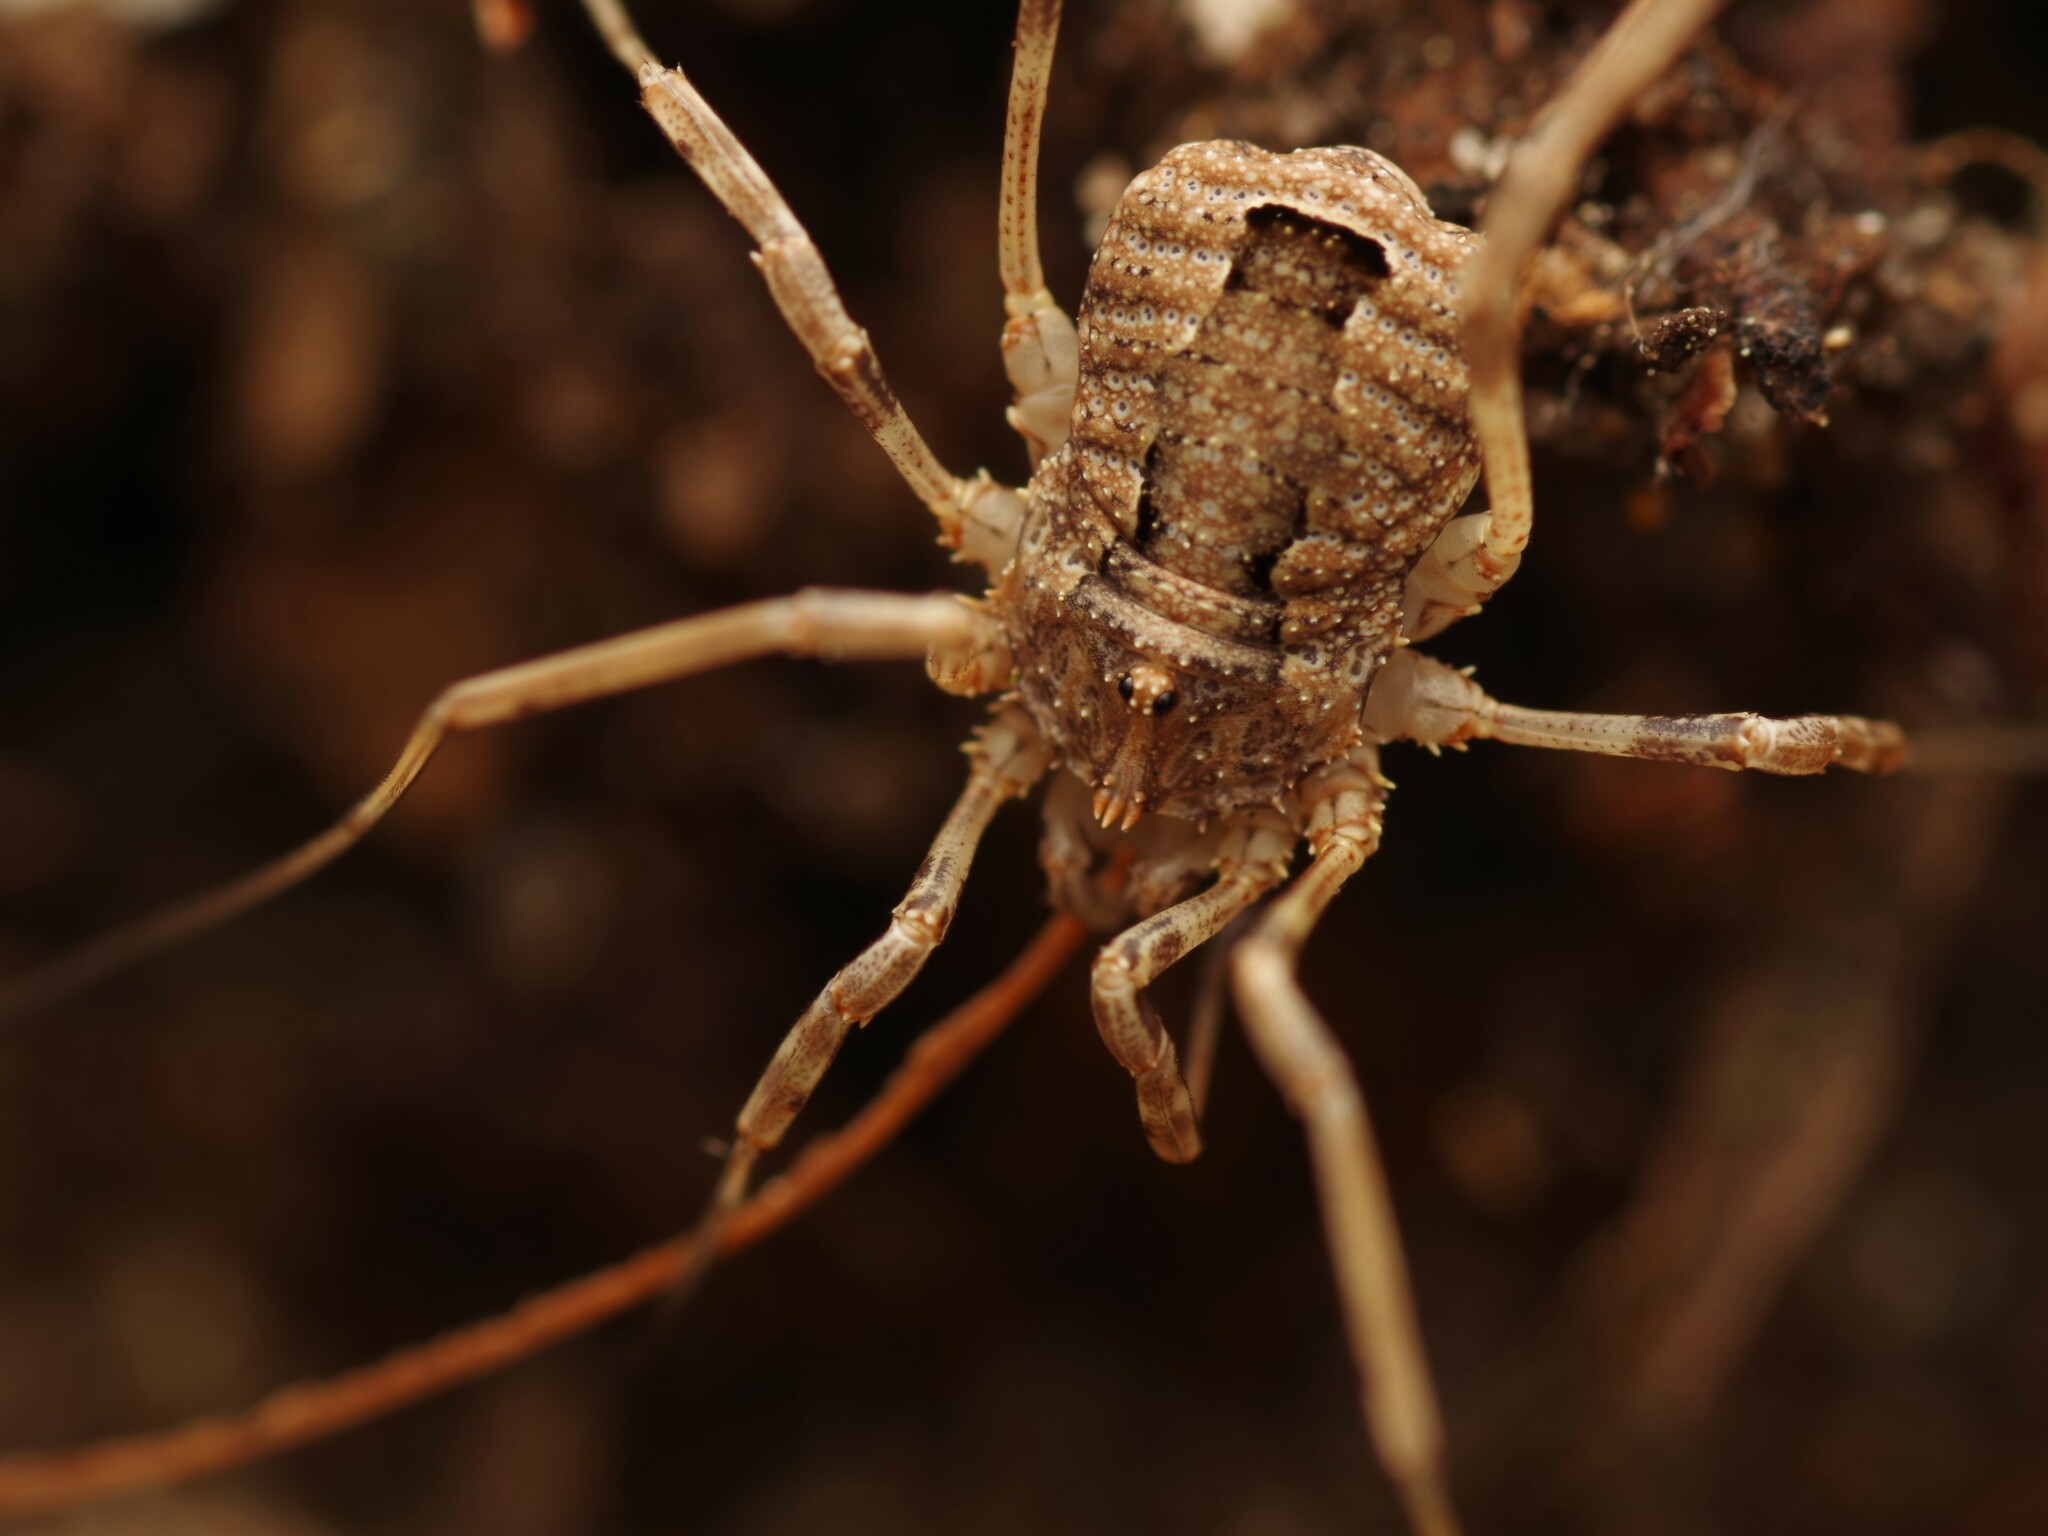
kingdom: Animalia
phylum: Arthropoda
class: Arachnida
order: Opiliones
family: Phalangiidae
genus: Odiellus
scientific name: Odiellus spinosus
